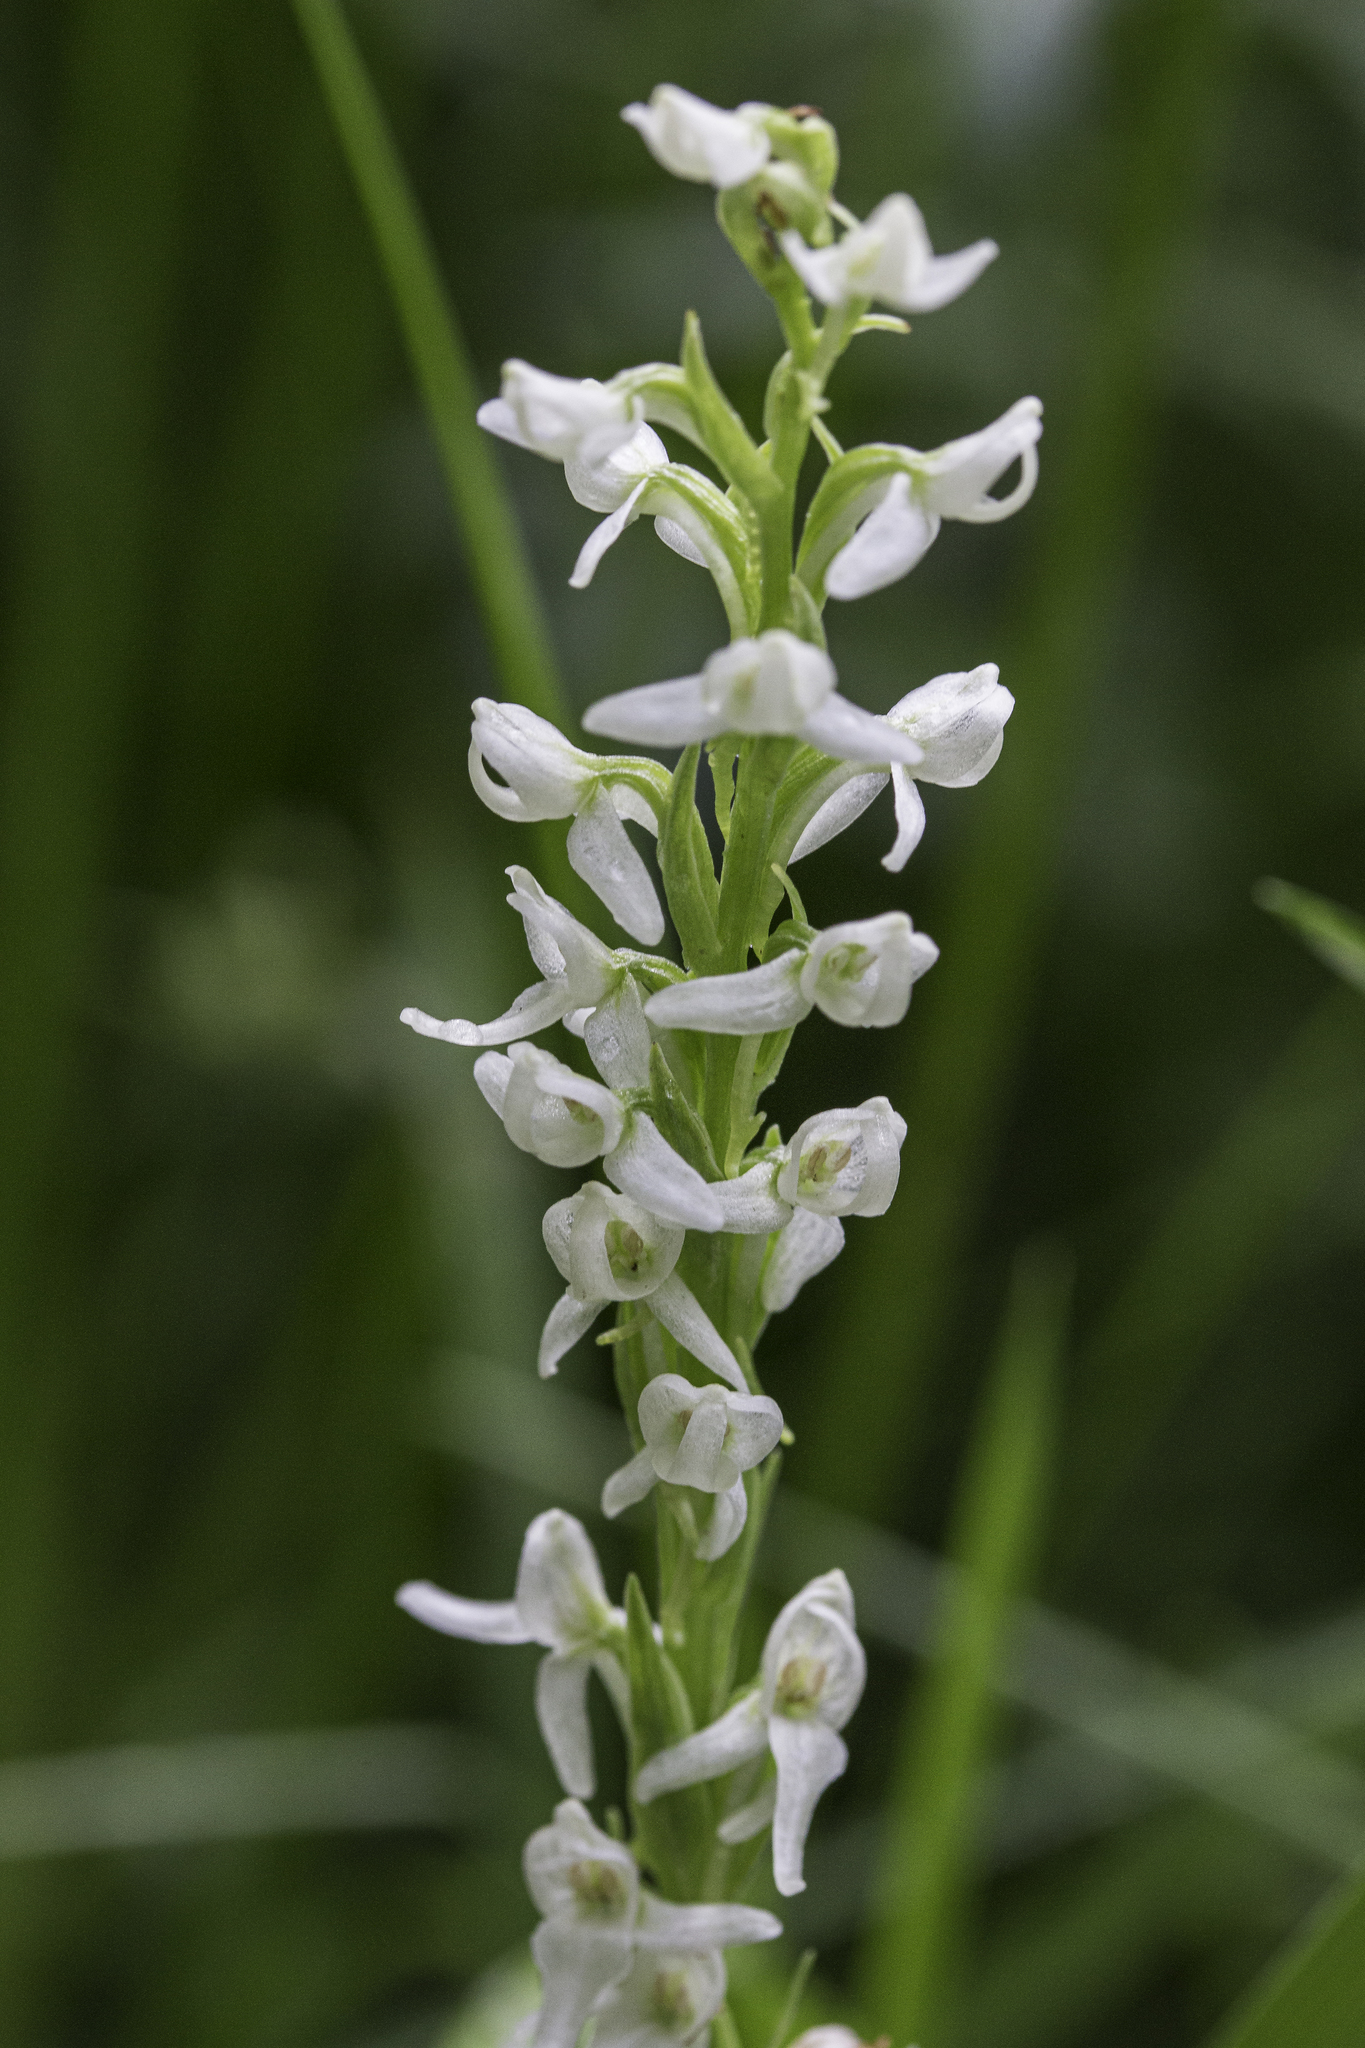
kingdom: Plantae
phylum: Tracheophyta
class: Liliopsida
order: Asparagales
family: Orchidaceae
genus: Platanthera
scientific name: Platanthera dilatata
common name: Bog candles
